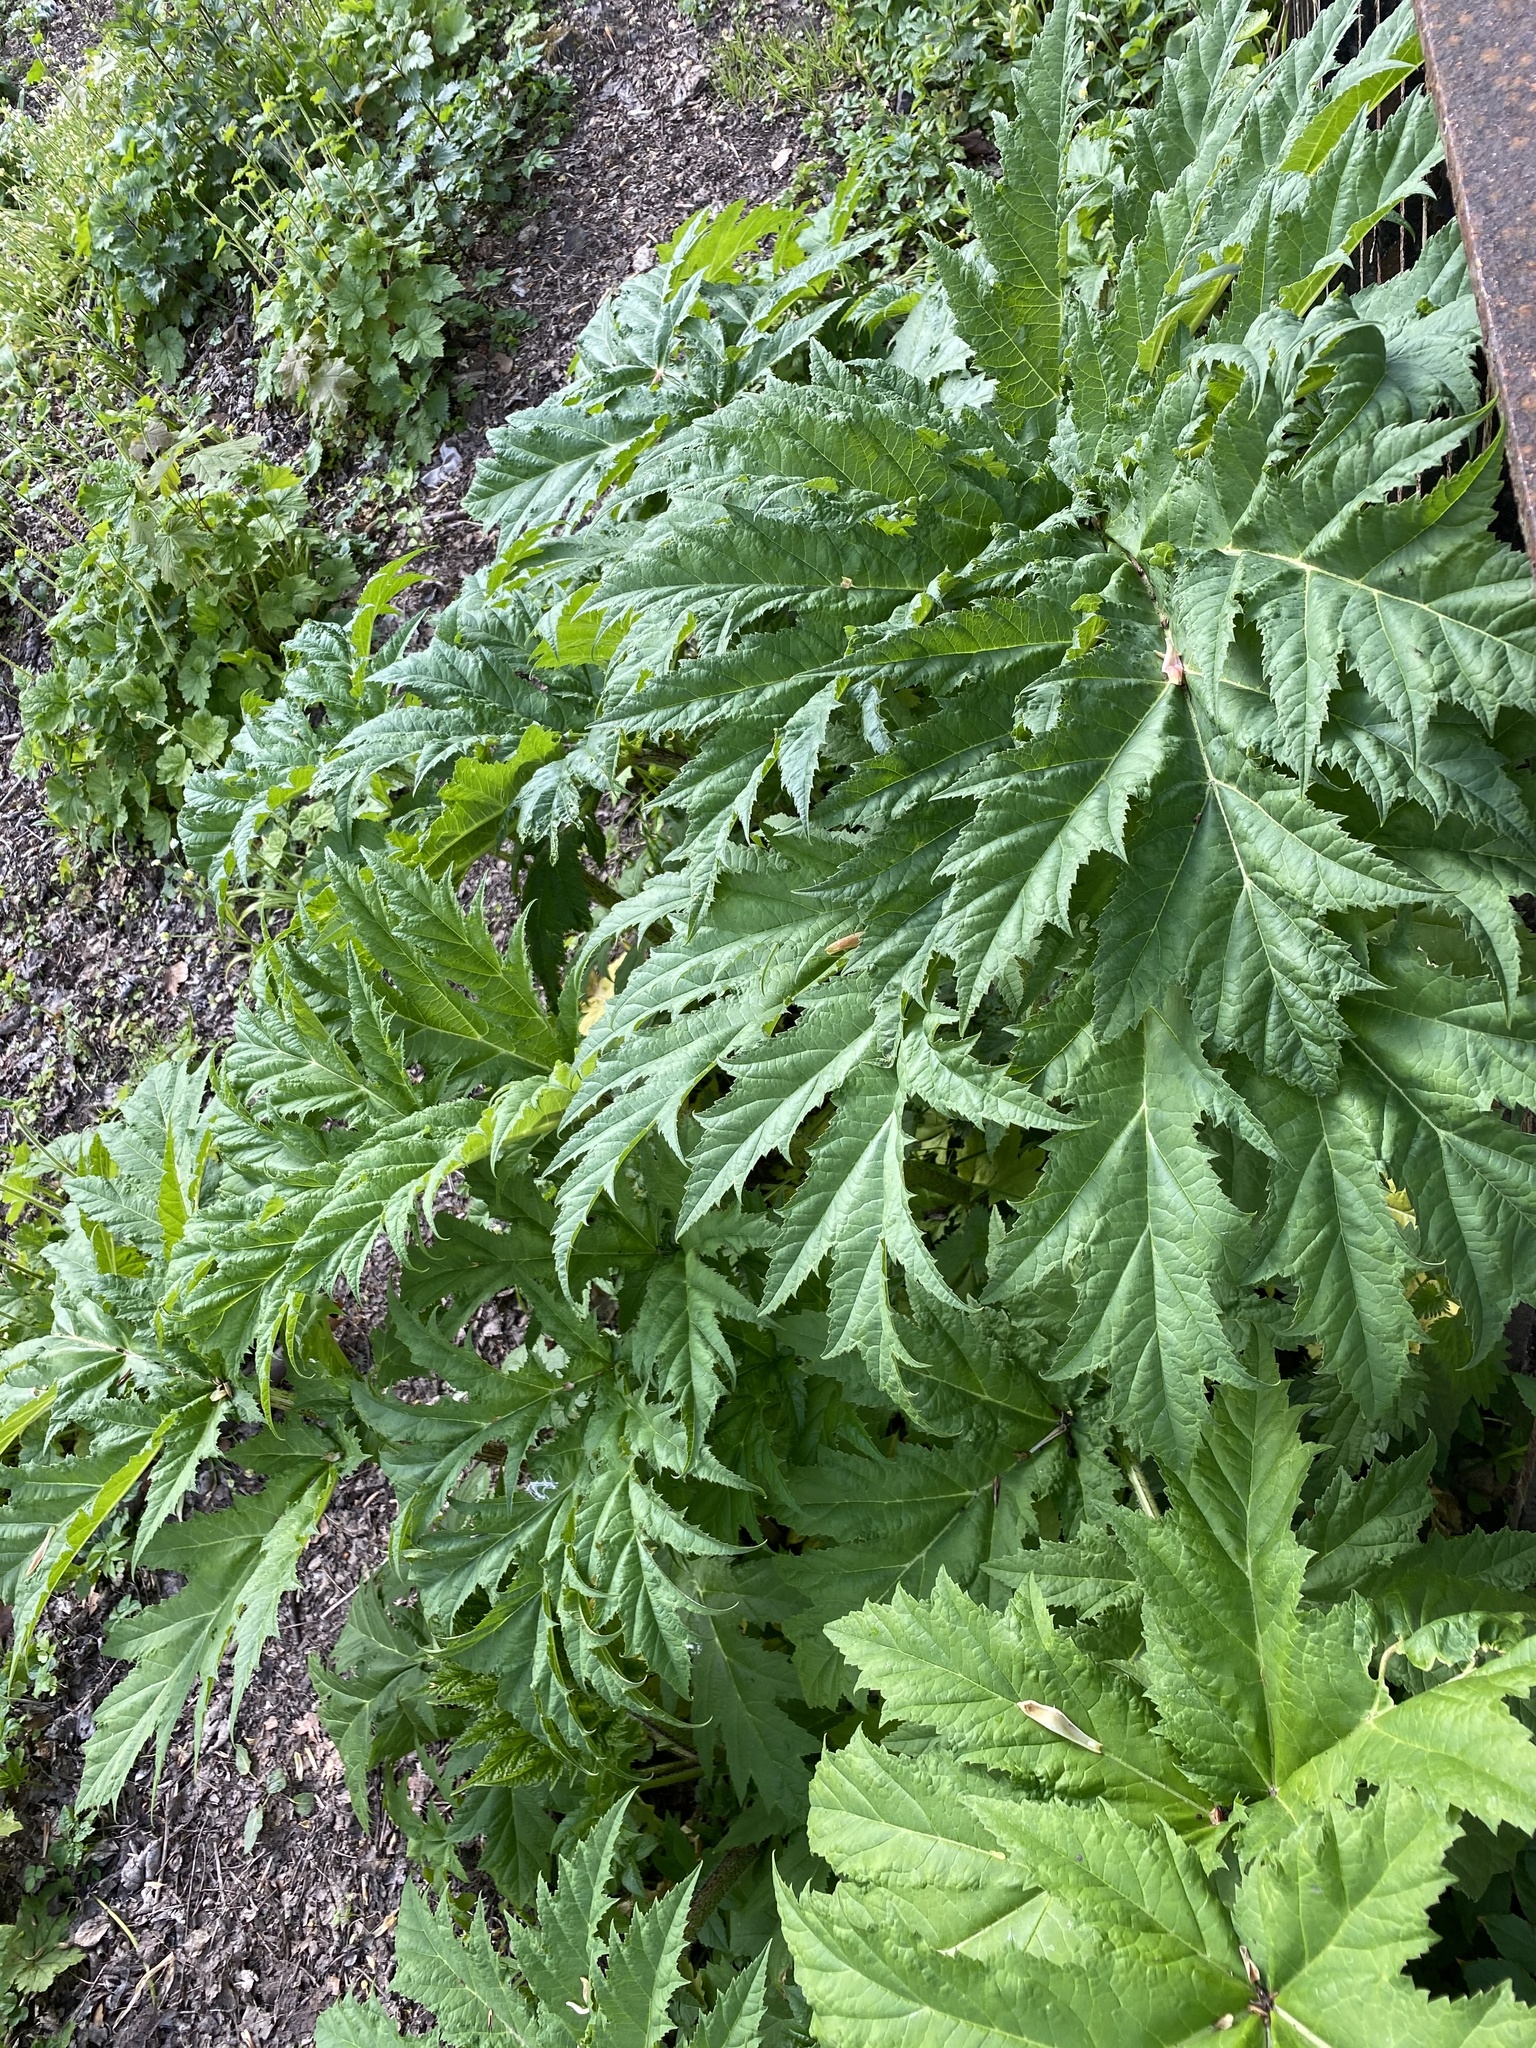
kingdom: Plantae
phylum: Tracheophyta
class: Magnoliopsida
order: Apiales
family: Apiaceae
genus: Heracleum
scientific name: Heracleum mantegazzianum
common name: Giant hogweed
